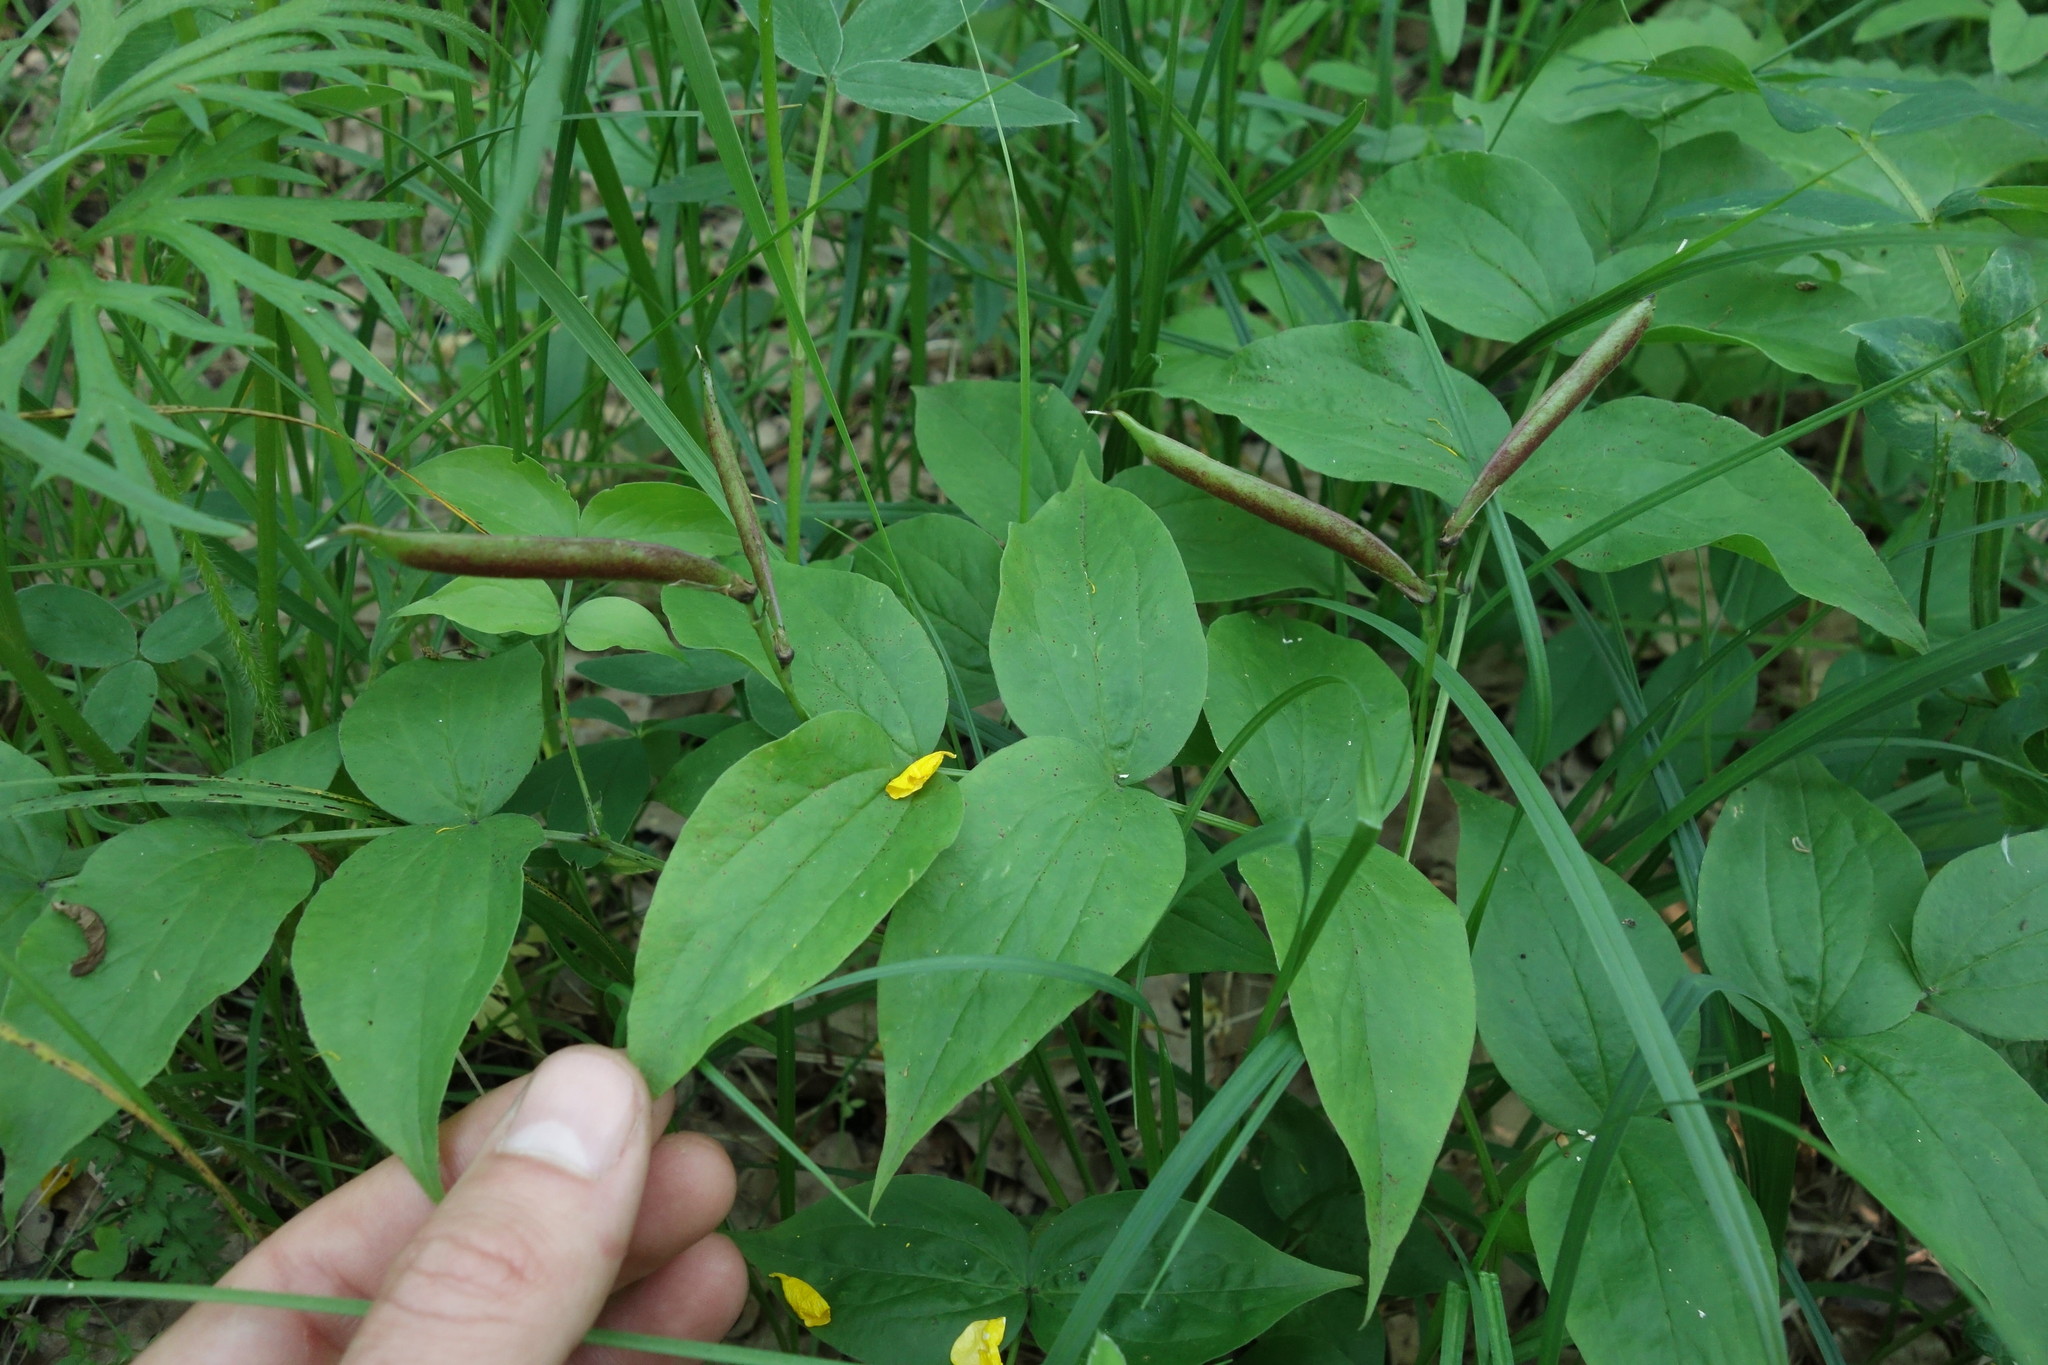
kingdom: Plantae
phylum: Tracheophyta
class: Magnoliopsida
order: Fabales
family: Fabaceae
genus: Lathyrus
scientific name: Lathyrus vernus
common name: Spring pea
